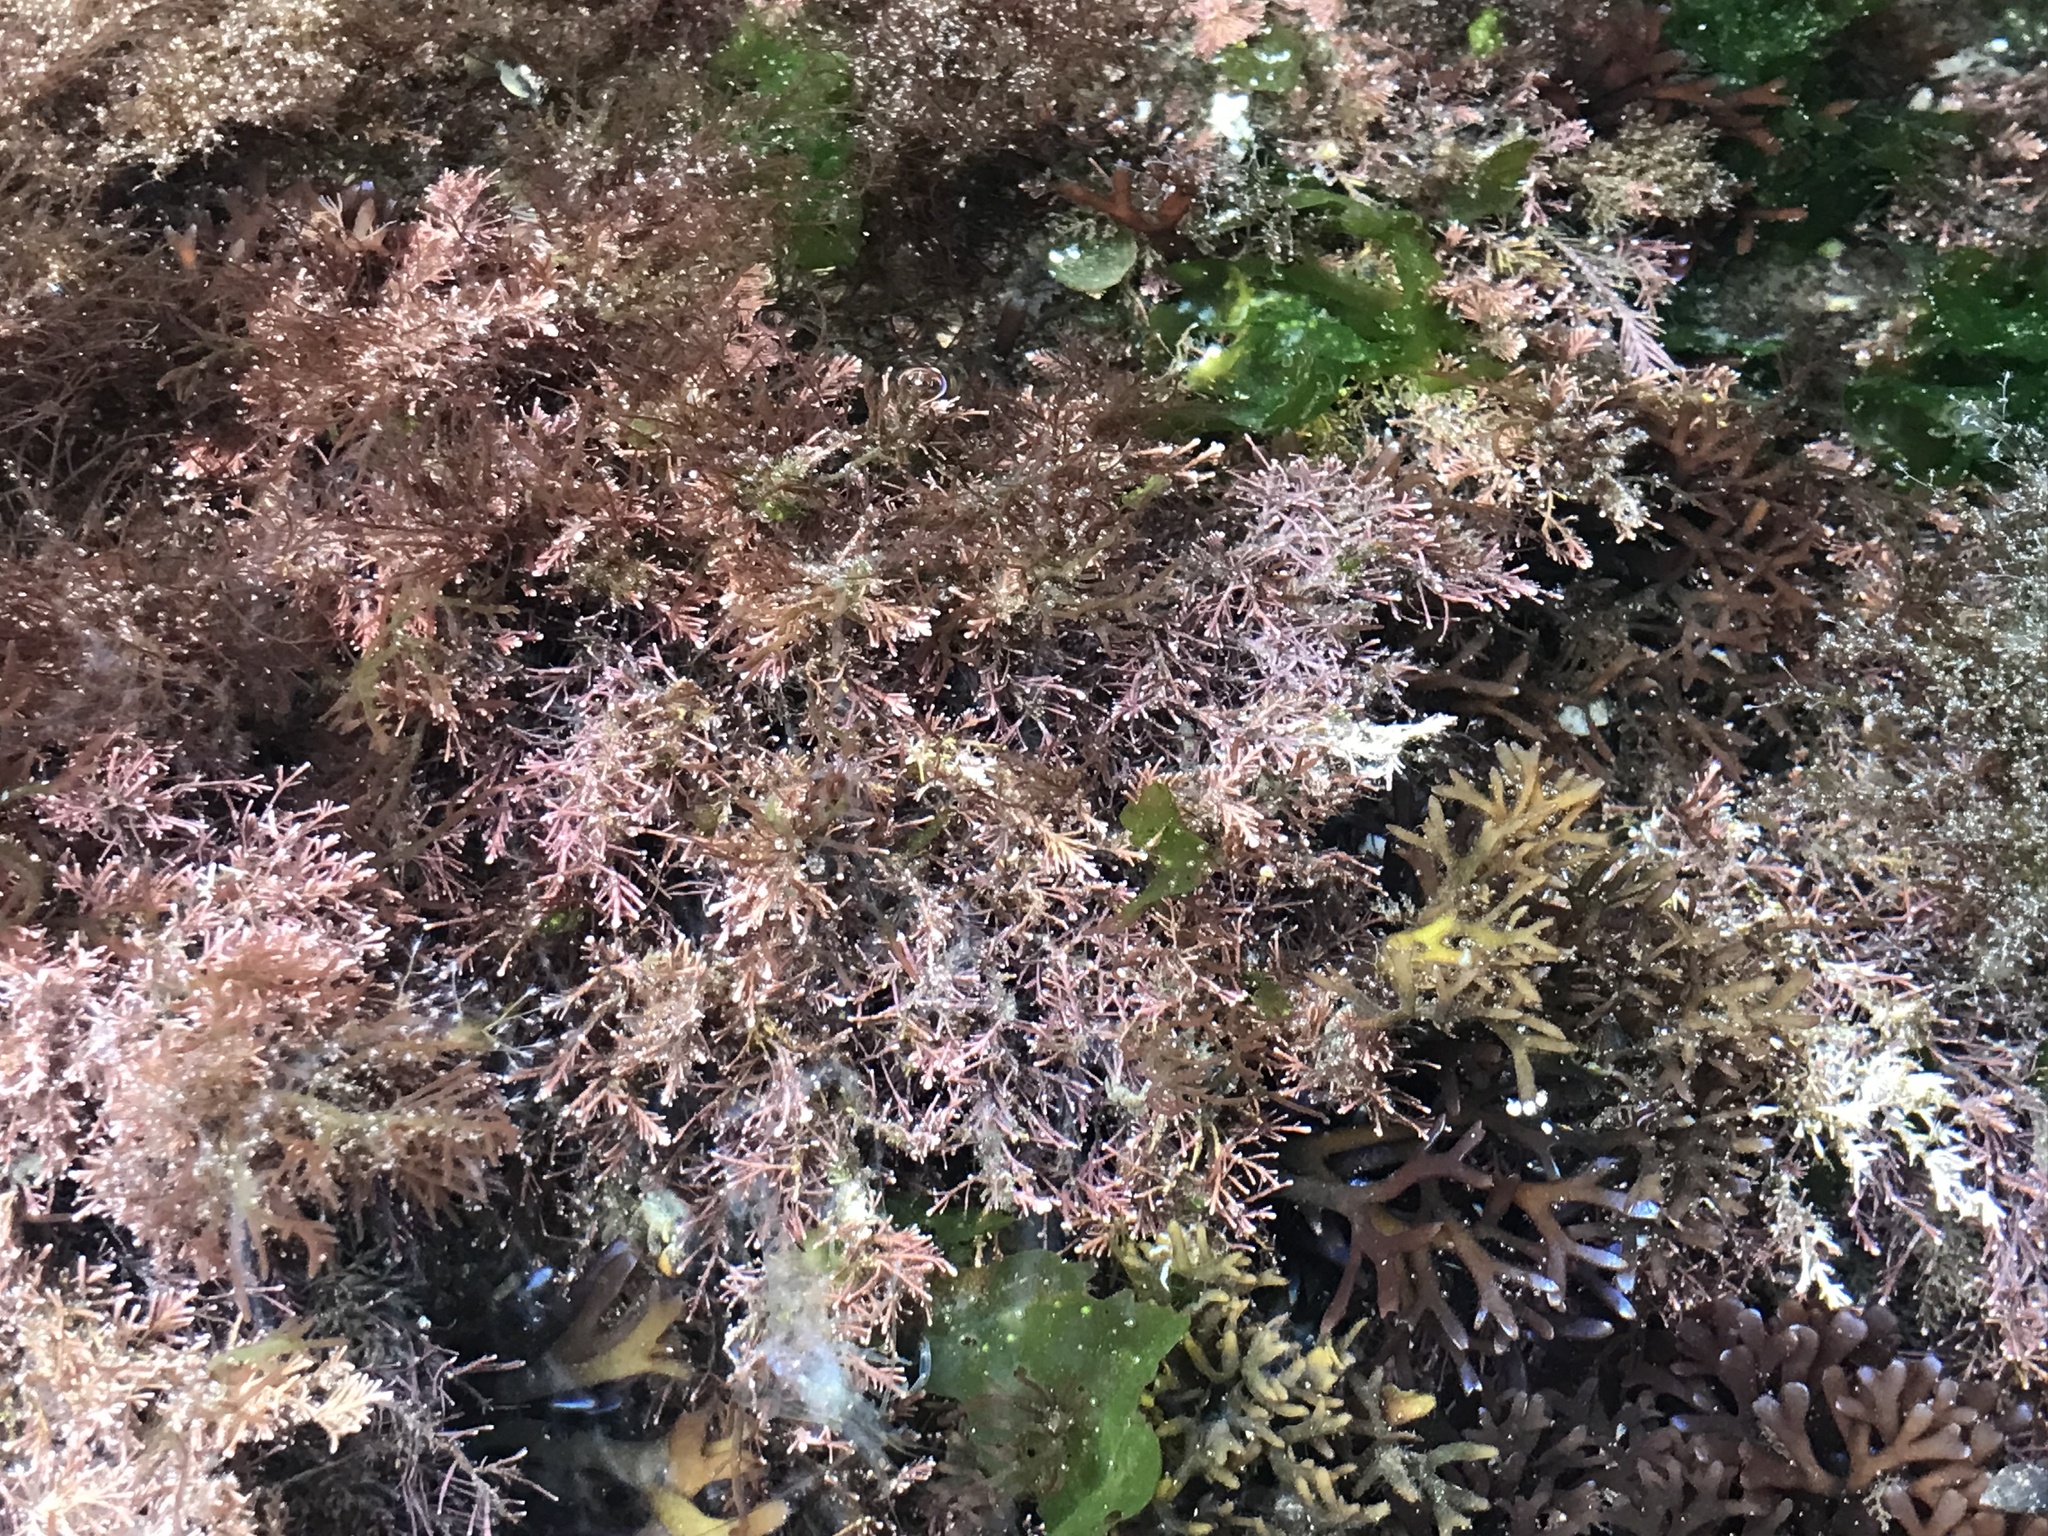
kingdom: Plantae
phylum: Rhodophyta
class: Florideophyceae
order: Corallinales
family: Corallinaceae
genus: Corallina
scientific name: Corallina officinalis
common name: Coral weed
